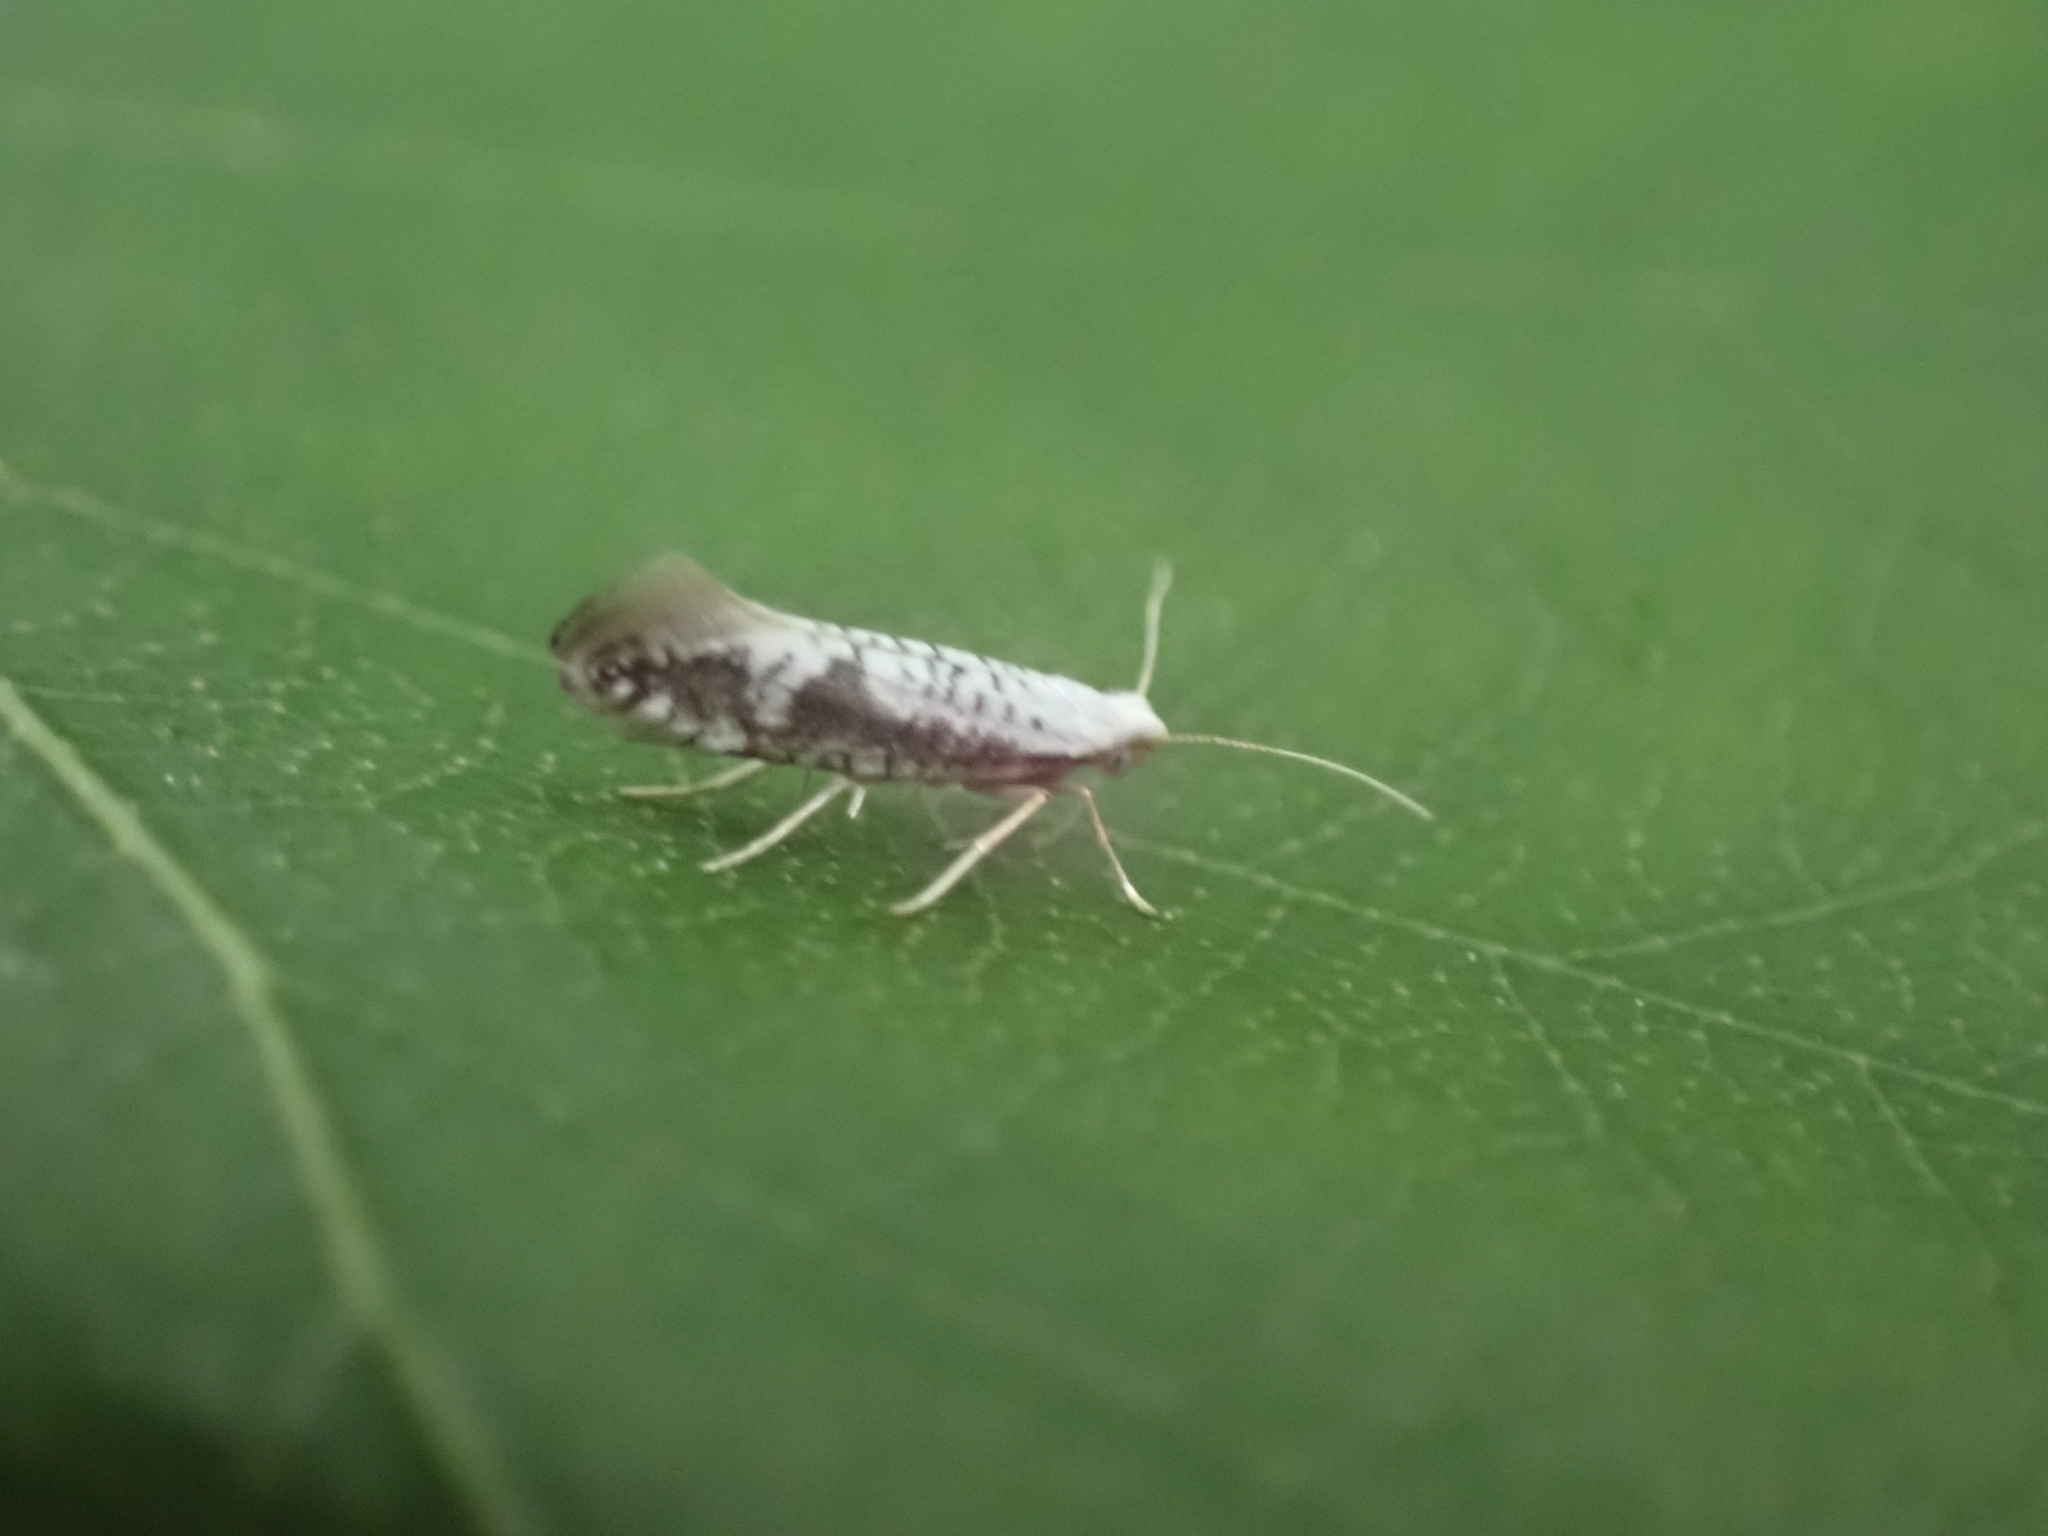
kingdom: Animalia
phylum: Arthropoda
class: Insecta
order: Lepidoptera
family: Argyresthiidae
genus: Argyresthia
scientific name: Argyresthia retinella
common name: Netted argent
